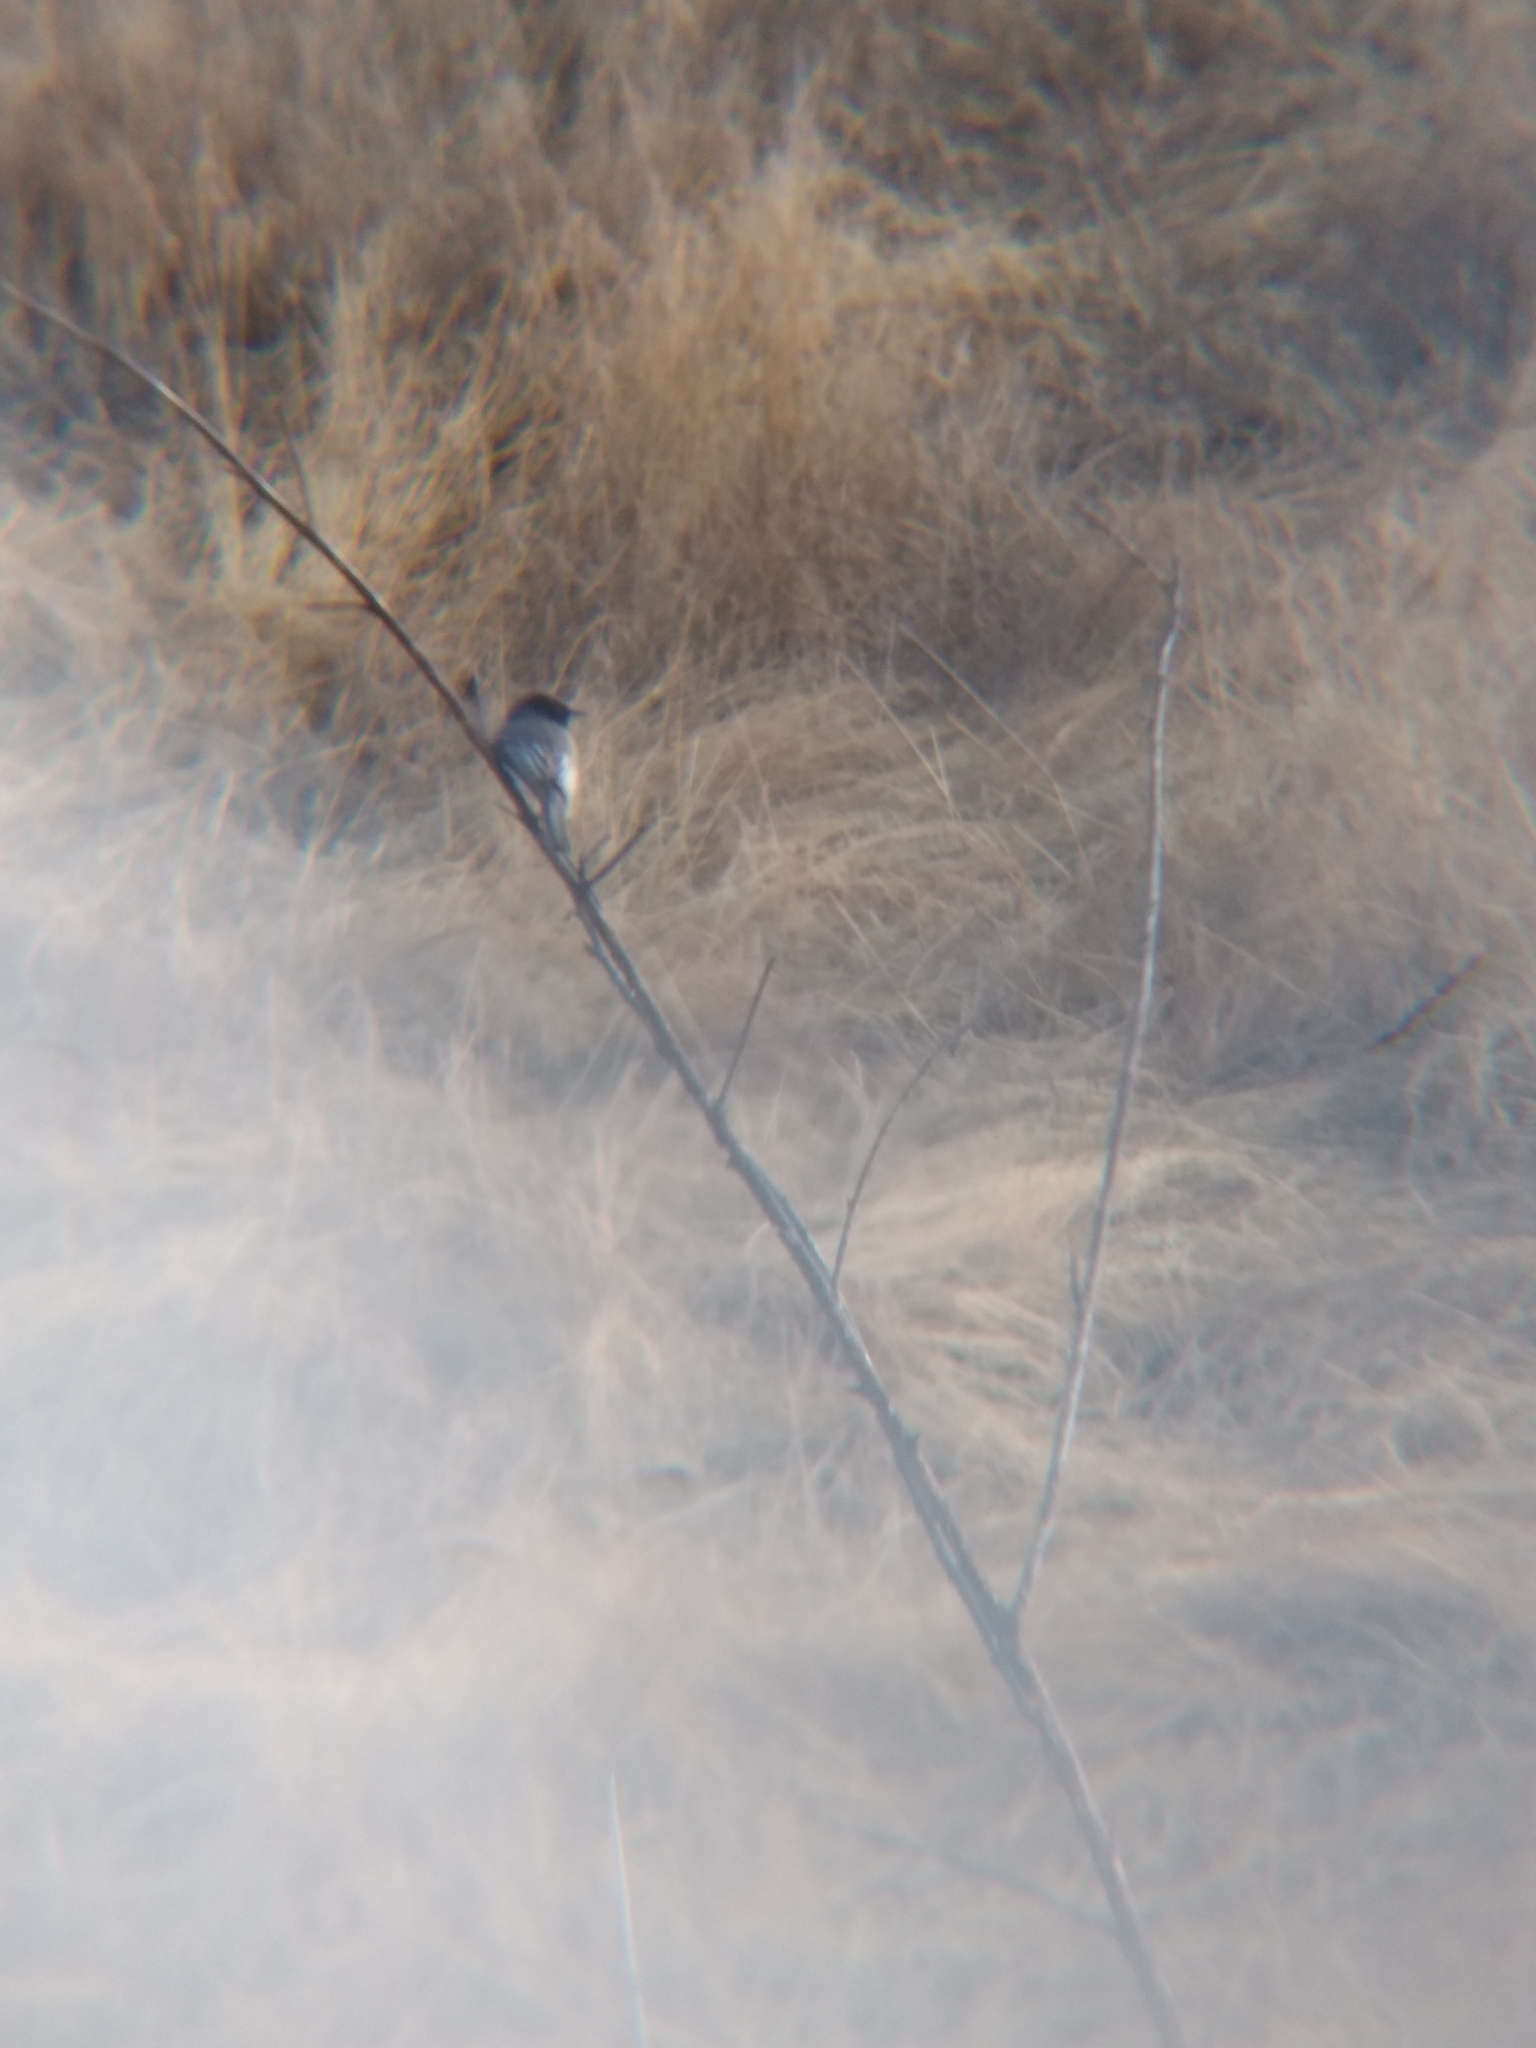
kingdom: Animalia
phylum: Chordata
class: Aves
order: Passeriformes
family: Tyrannidae
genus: Sayornis
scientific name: Sayornis nigricans
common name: Black phoebe
